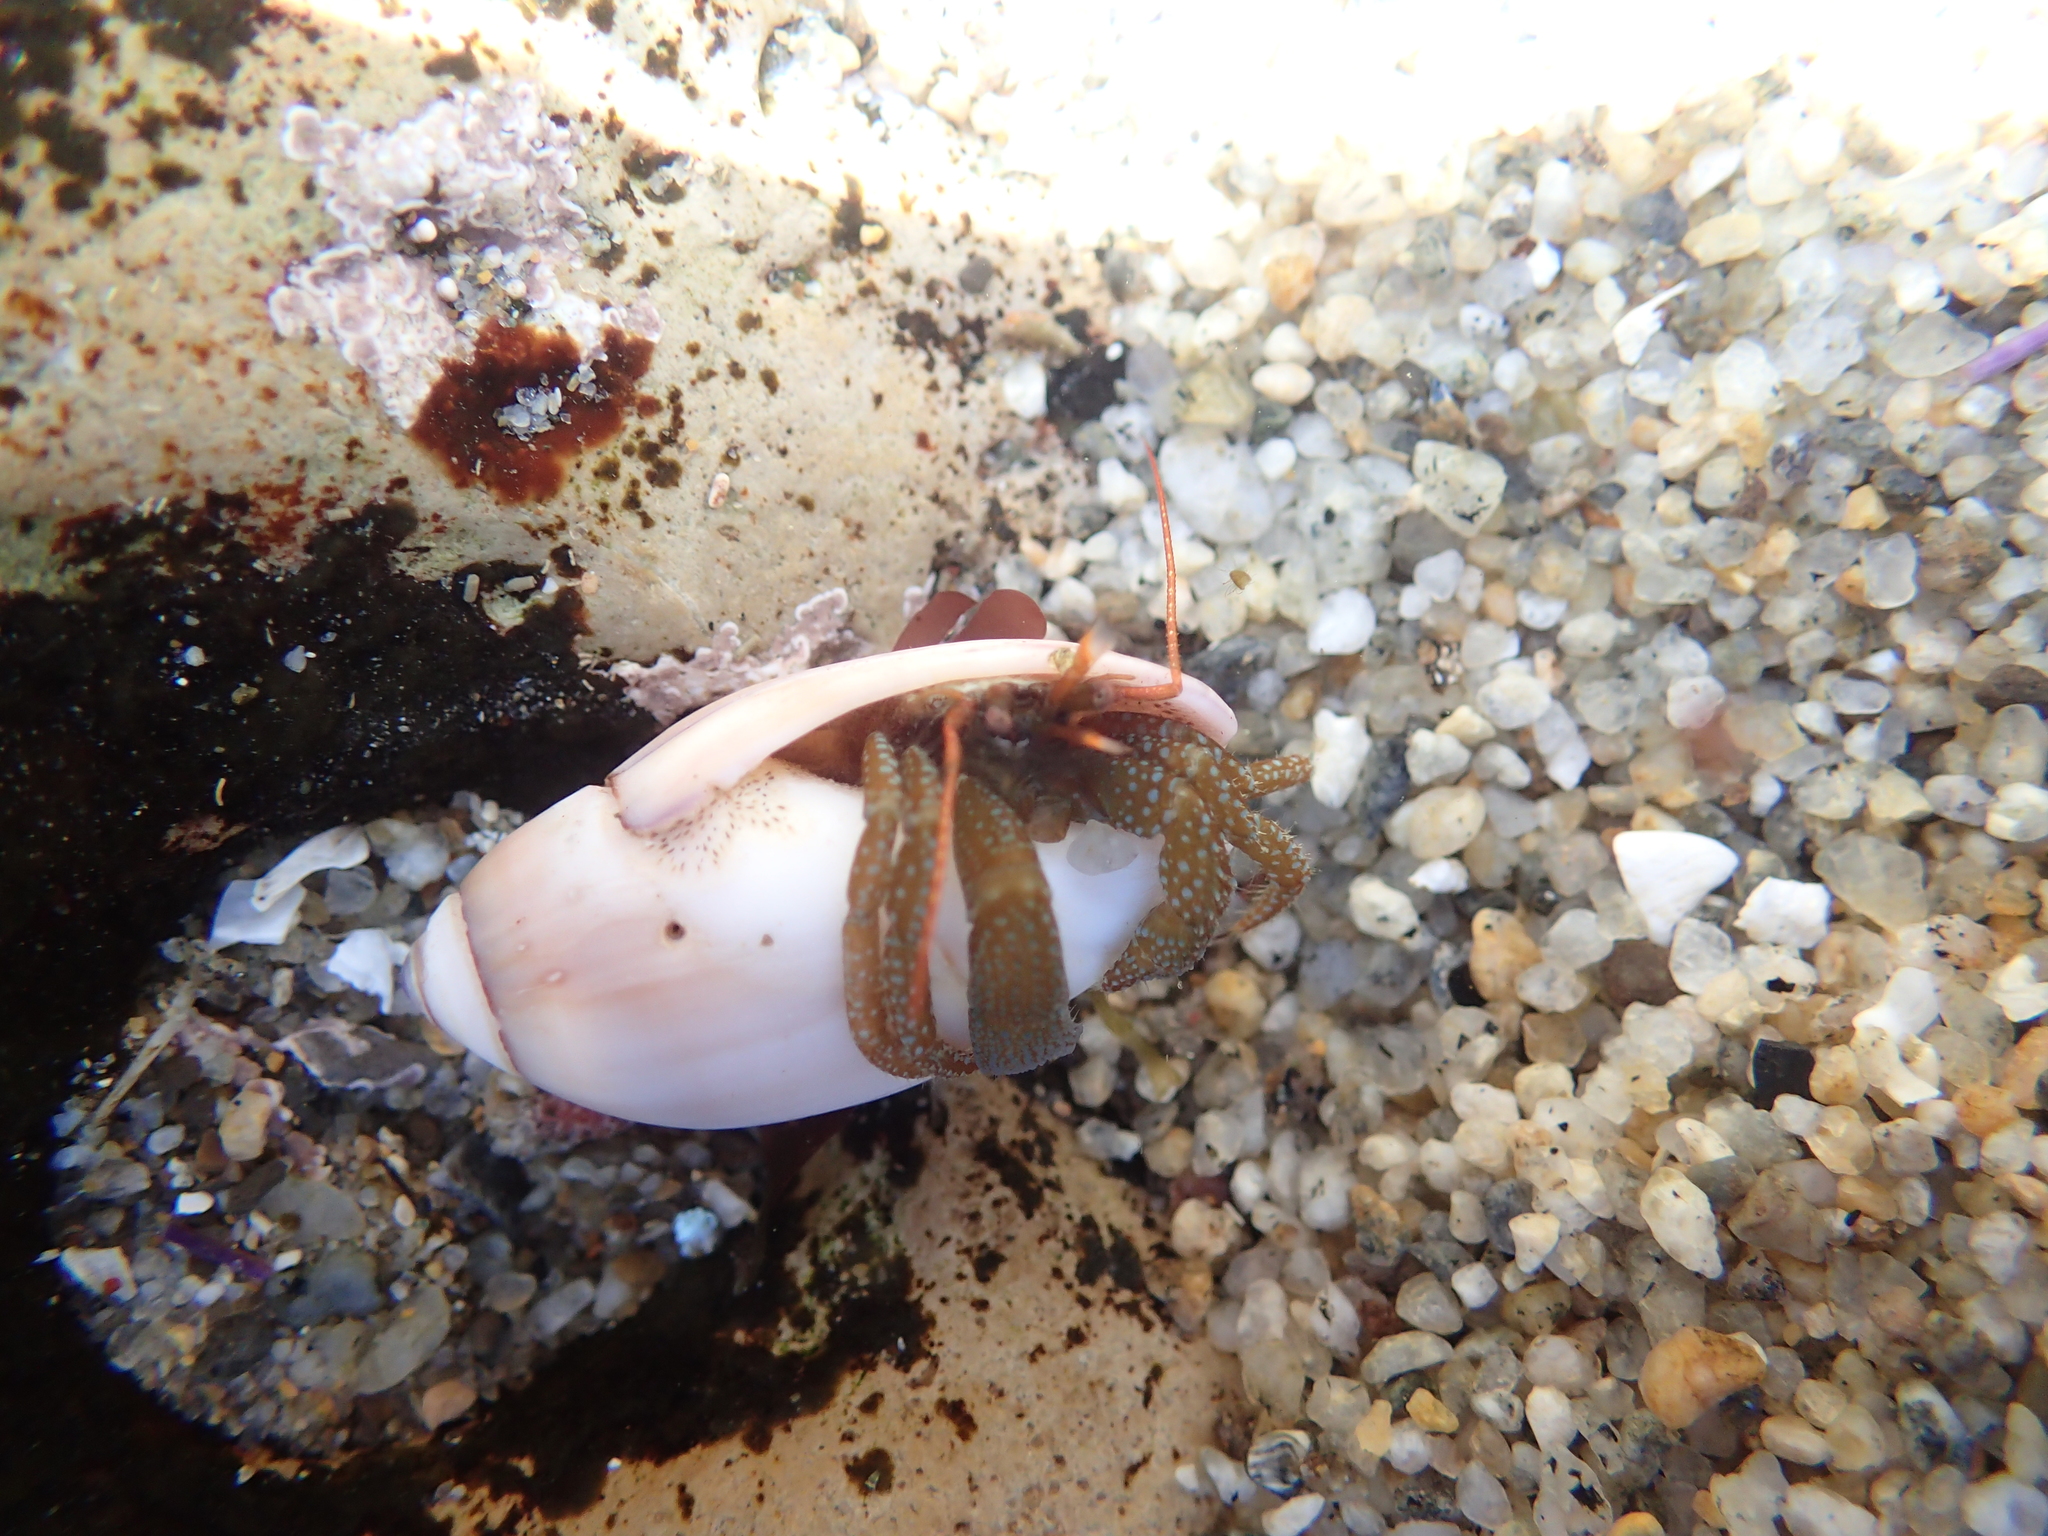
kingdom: Animalia
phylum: Arthropoda
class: Malacostraca
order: Decapoda
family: Paguridae
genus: Pagurus
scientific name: Pagurus granosimanus
